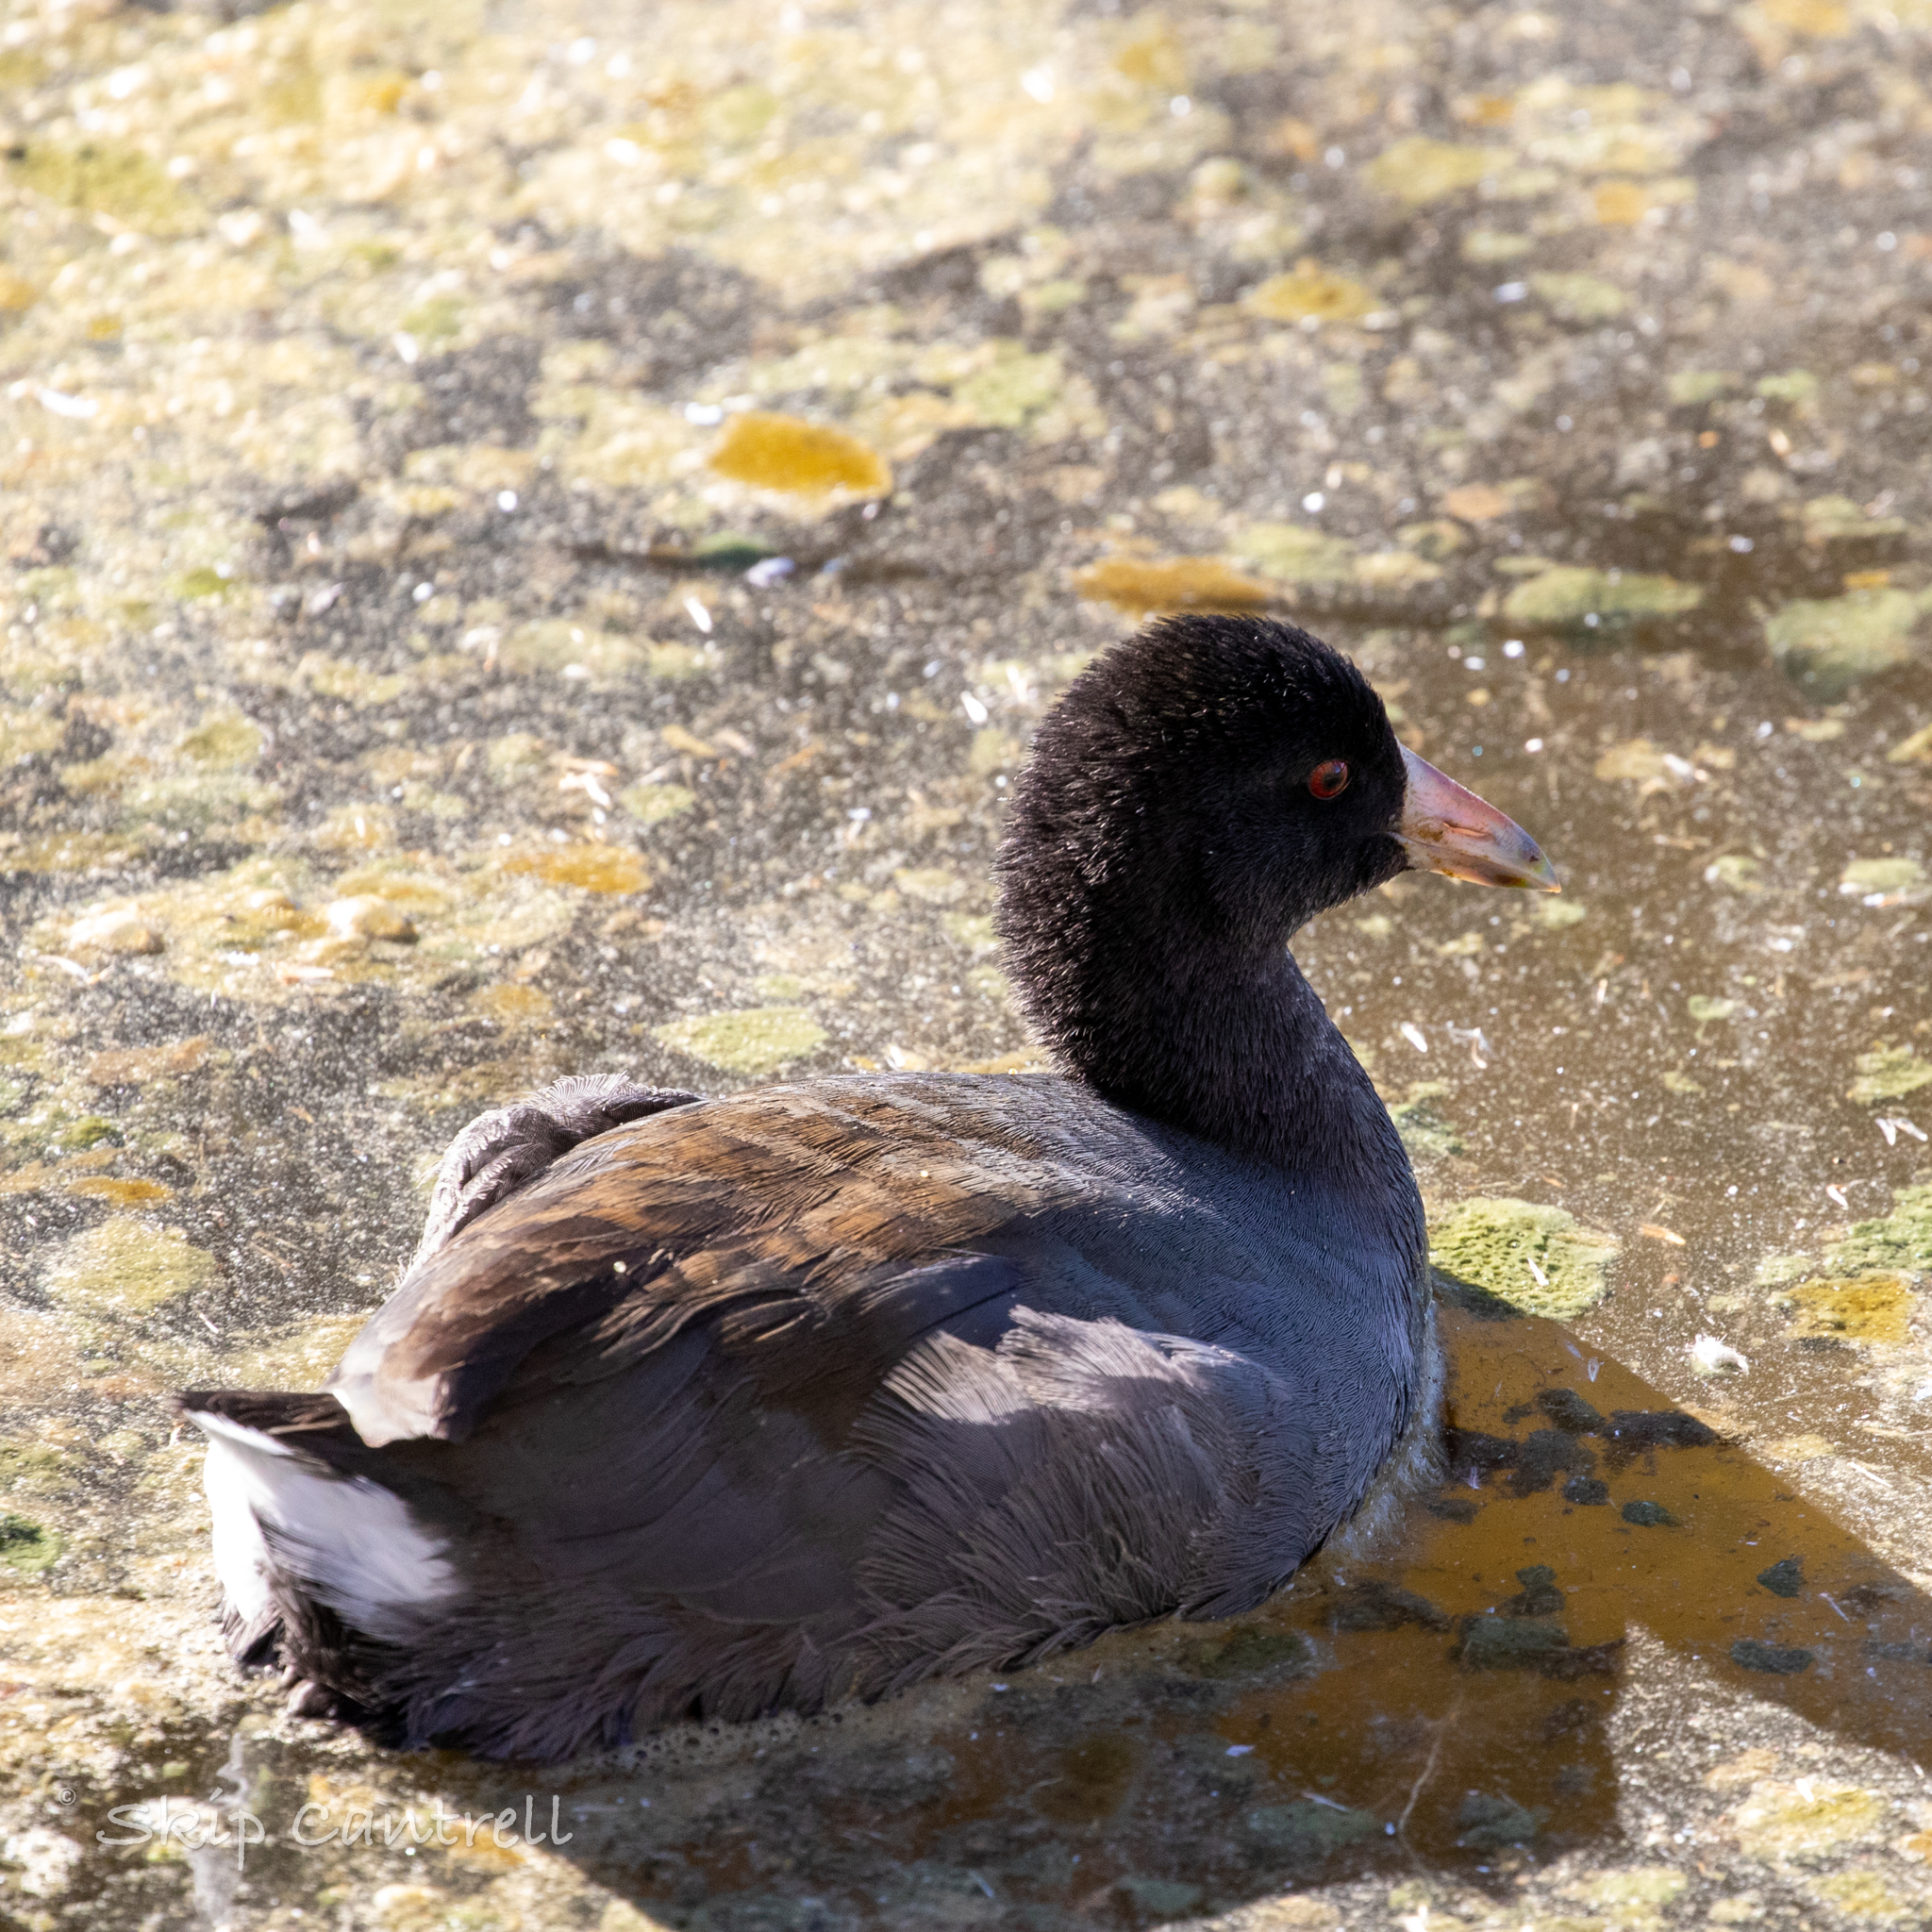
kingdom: Animalia
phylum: Chordata
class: Aves
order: Gruiformes
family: Rallidae
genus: Fulica
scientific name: Fulica americana
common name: American coot
